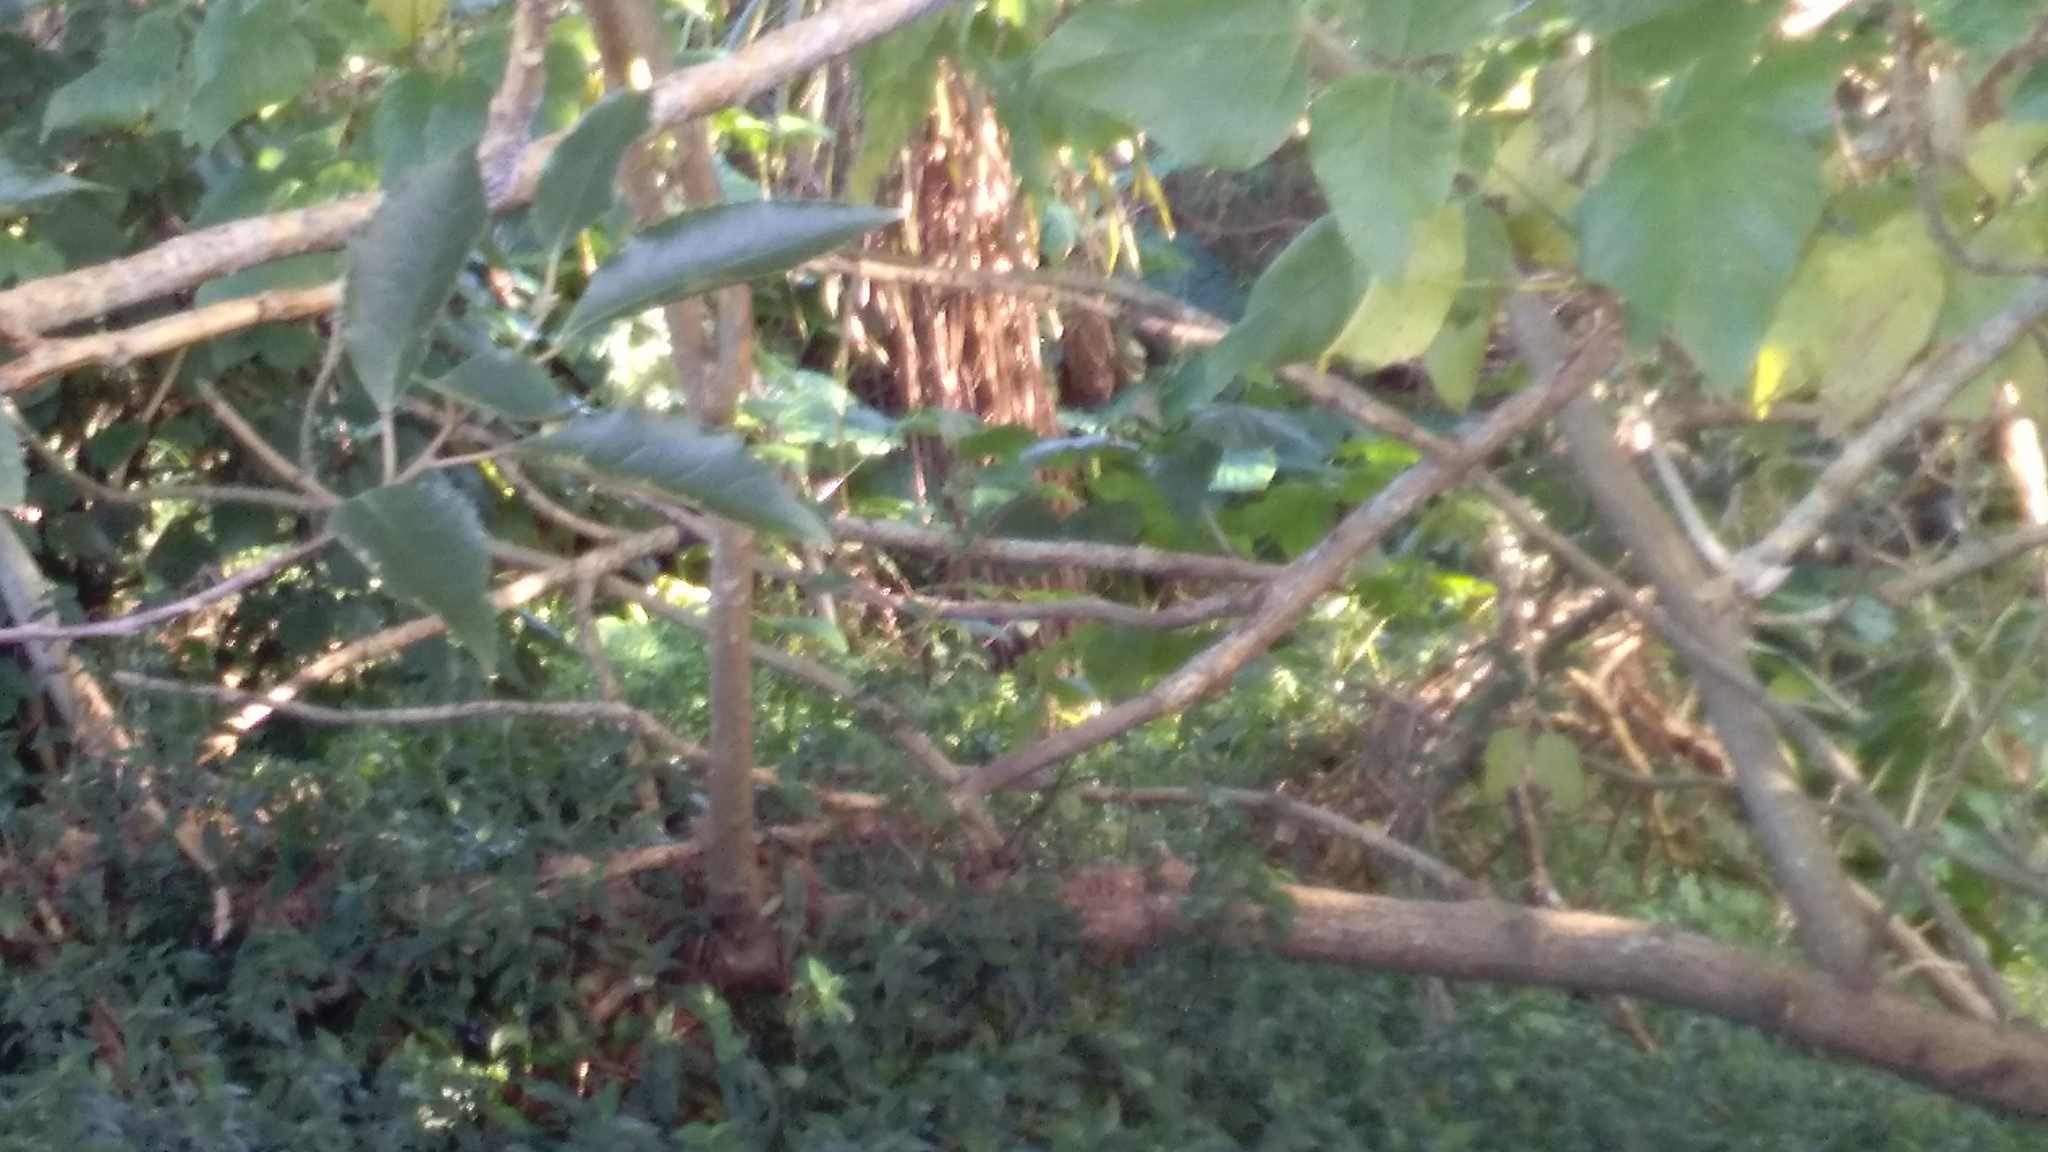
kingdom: Plantae
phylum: Tracheophyta
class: Magnoliopsida
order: Fabales
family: Fabaceae
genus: Erythrina
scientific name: Erythrina sykesii
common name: Coraltree
